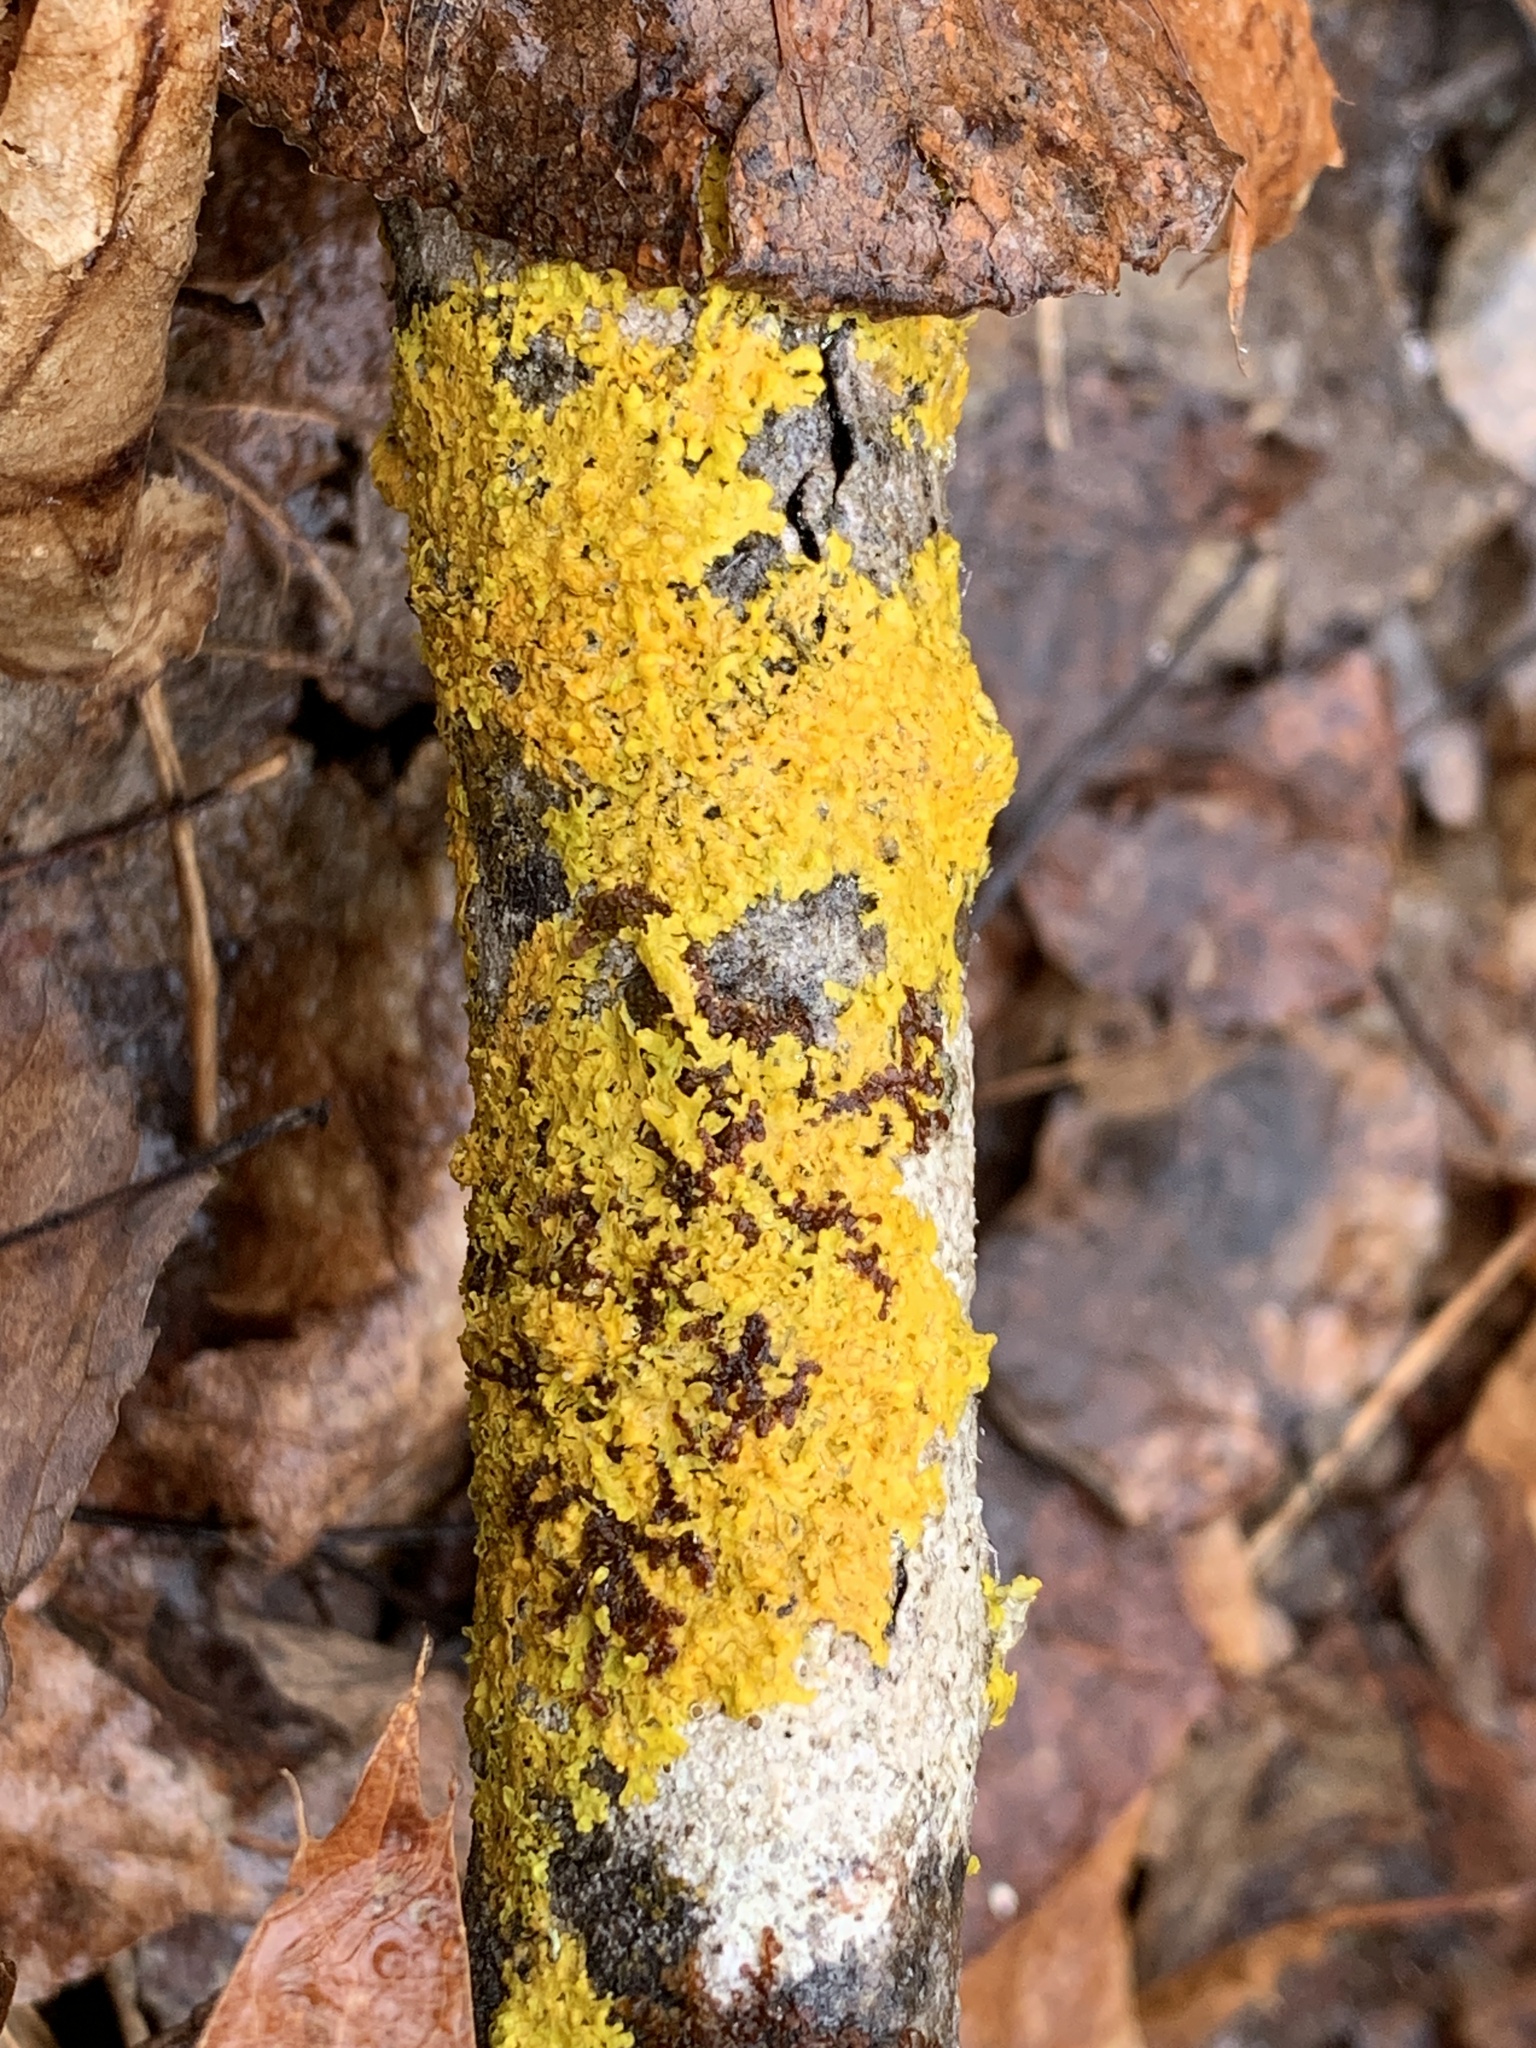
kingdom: Fungi
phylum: Ascomycota
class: Lecanoromycetes
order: Teloschistales
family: Teloschistaceae
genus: Xanthoria
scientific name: Xanthoria parietina
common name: Common orange lichen
